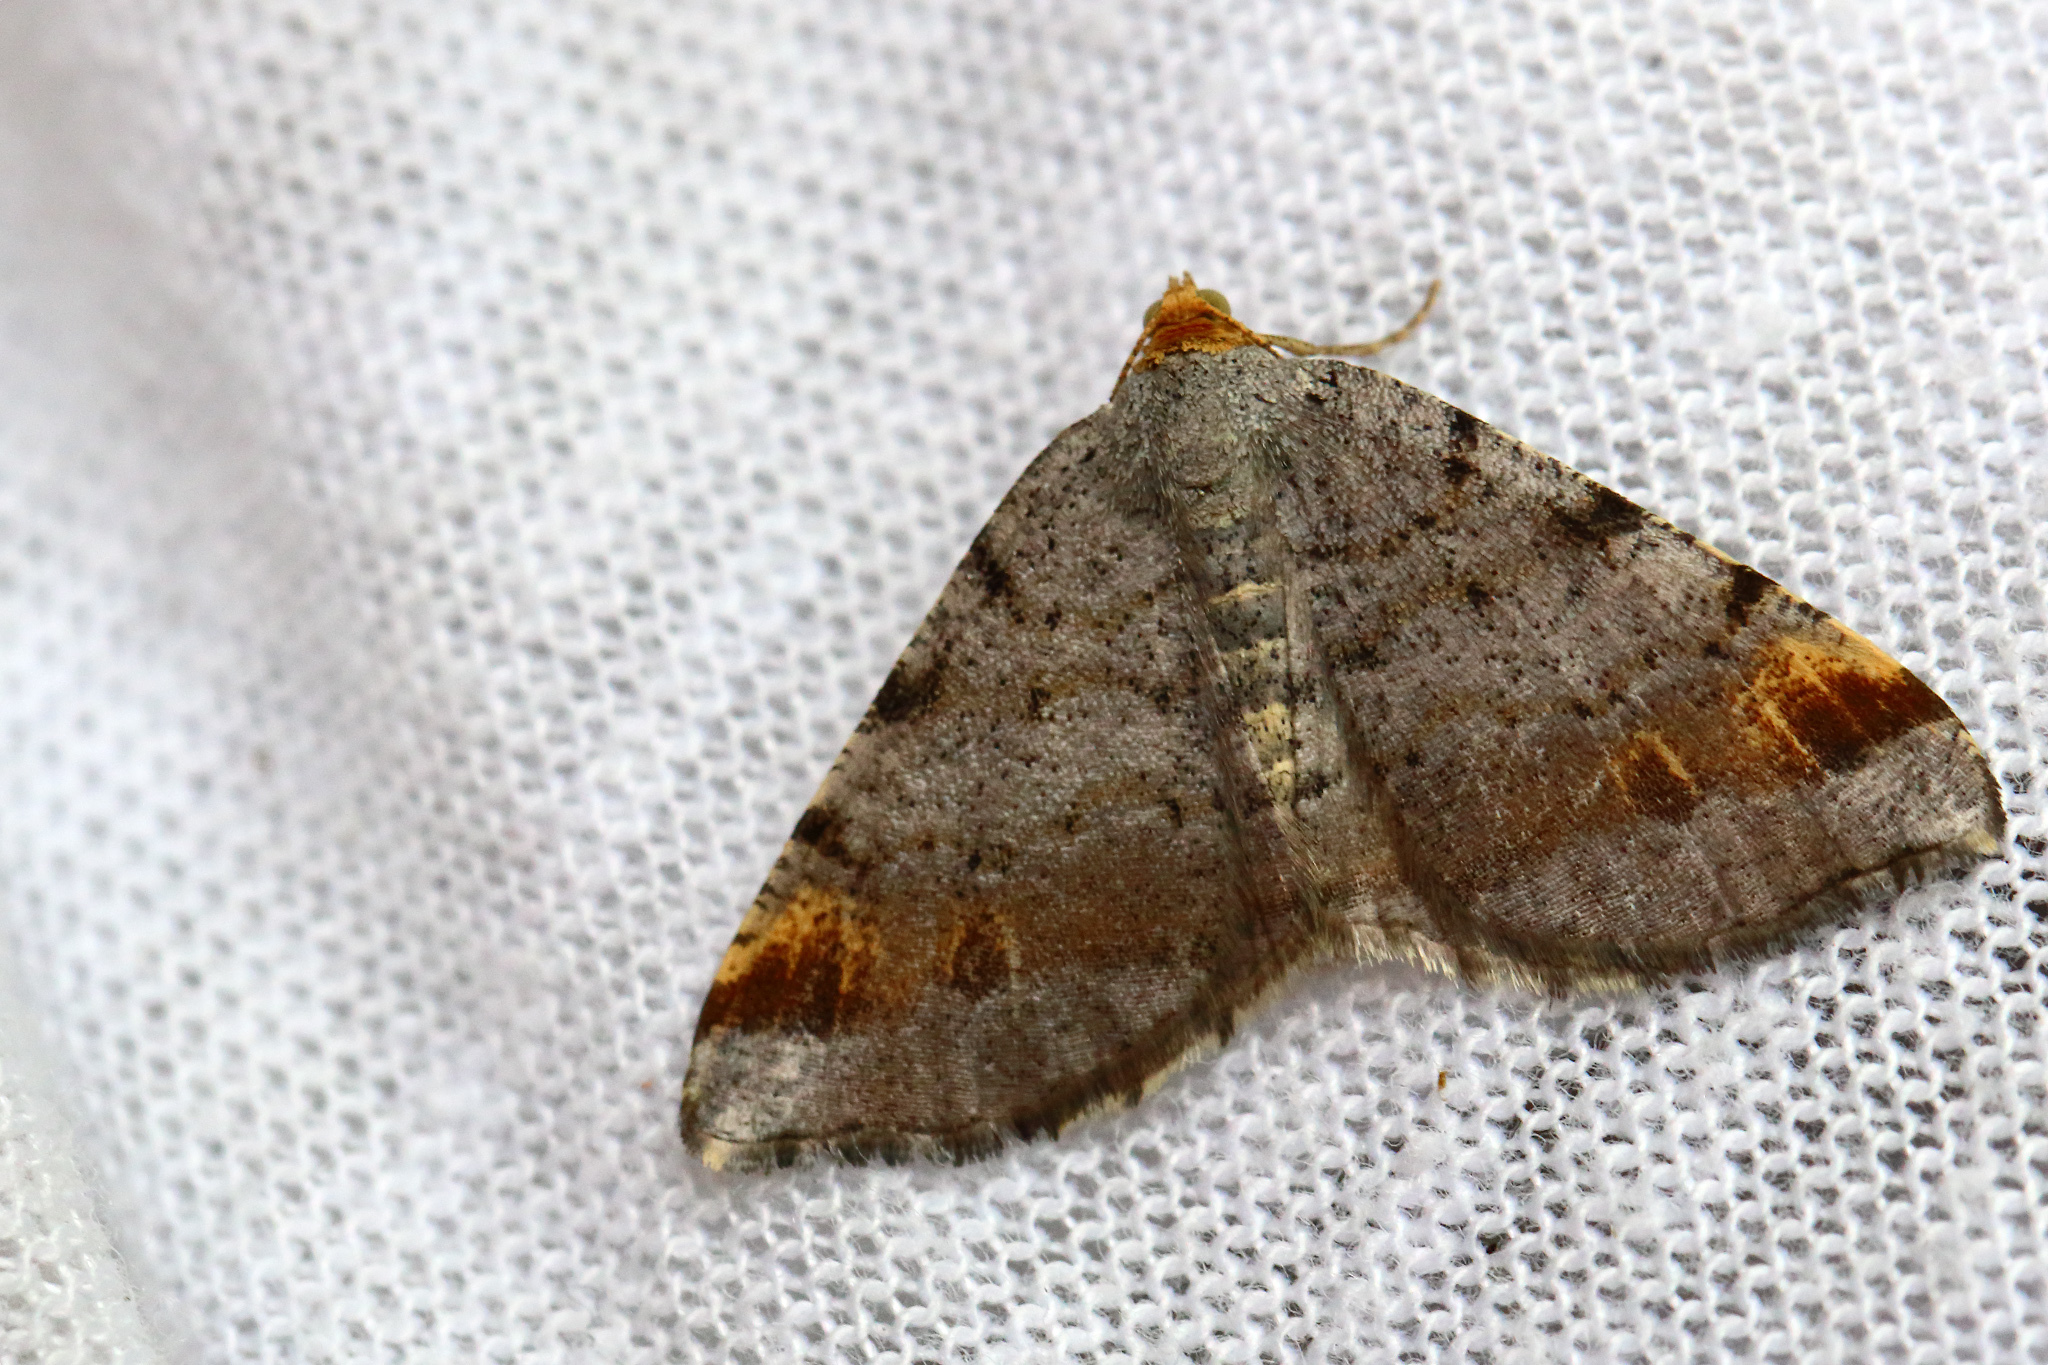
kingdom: Animalia
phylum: Arthropoda
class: Insecta
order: Lepidoptera
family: Geometridae
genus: Macaria
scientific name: Macaria liturata
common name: Tawny-barred angle
